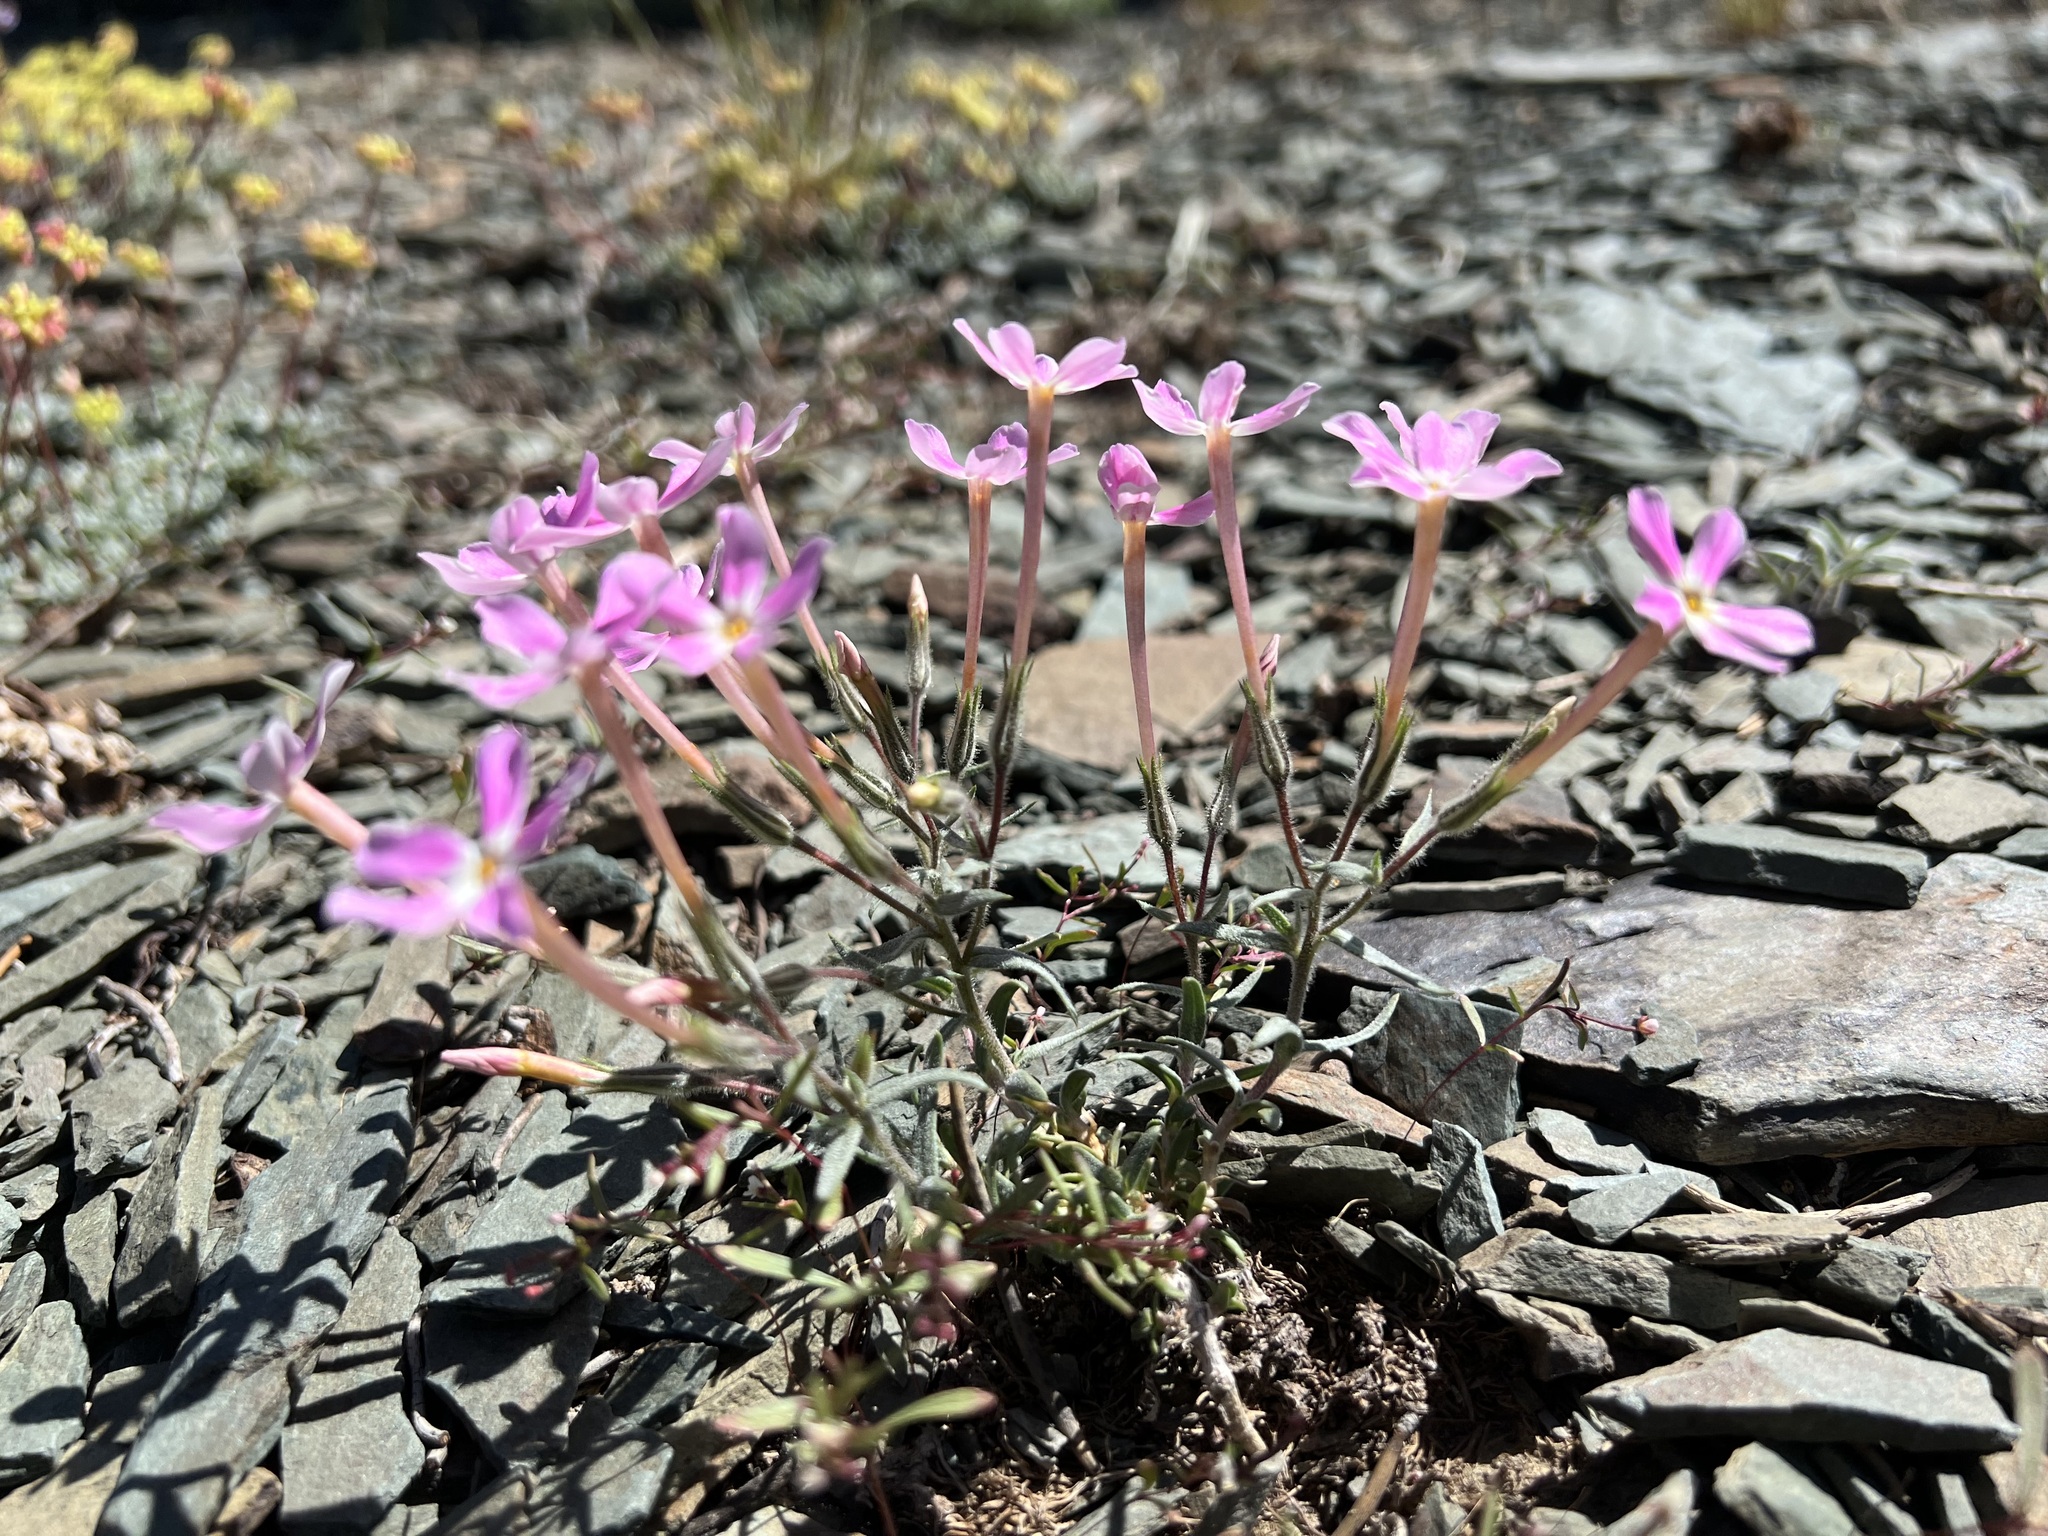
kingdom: Plantae
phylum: Tracheophyta
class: Magnoliopsida
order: Ericales
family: Polemoniaceae
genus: Phlox
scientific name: Phlox longifolia
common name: Longleaf phlox
